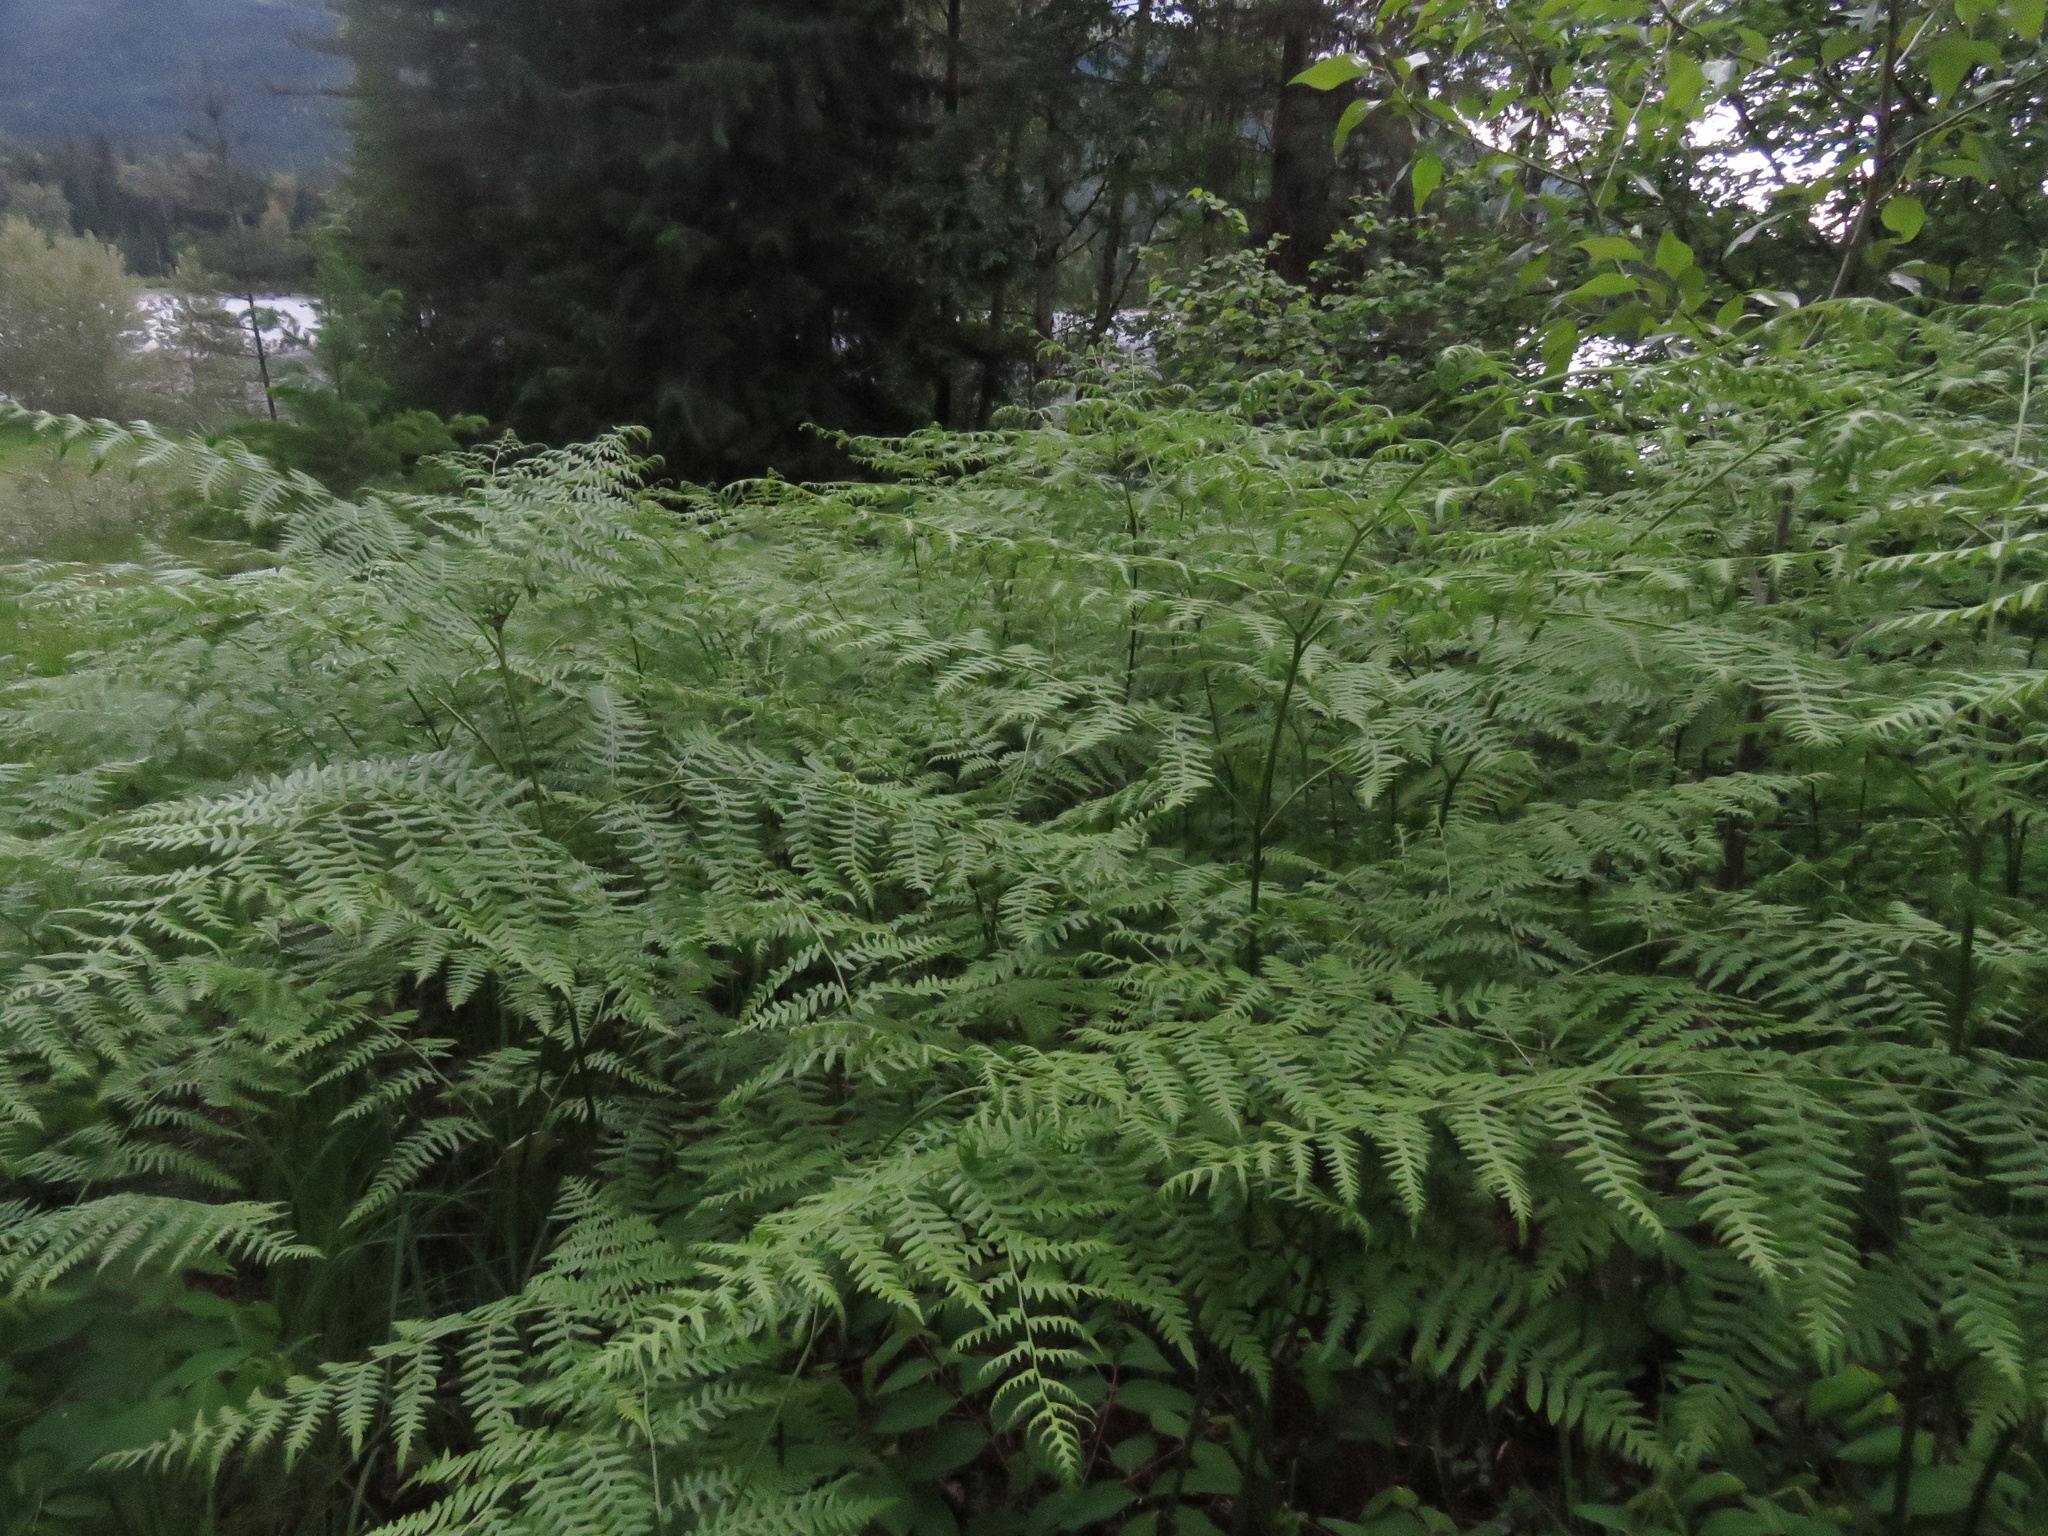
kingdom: Plantae
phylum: Tracheophyta
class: Polypodiopsida
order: Polypodiales
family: Dennstaedtiaceae
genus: Pteridium
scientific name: Pteridium aquilinum
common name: Bracken
